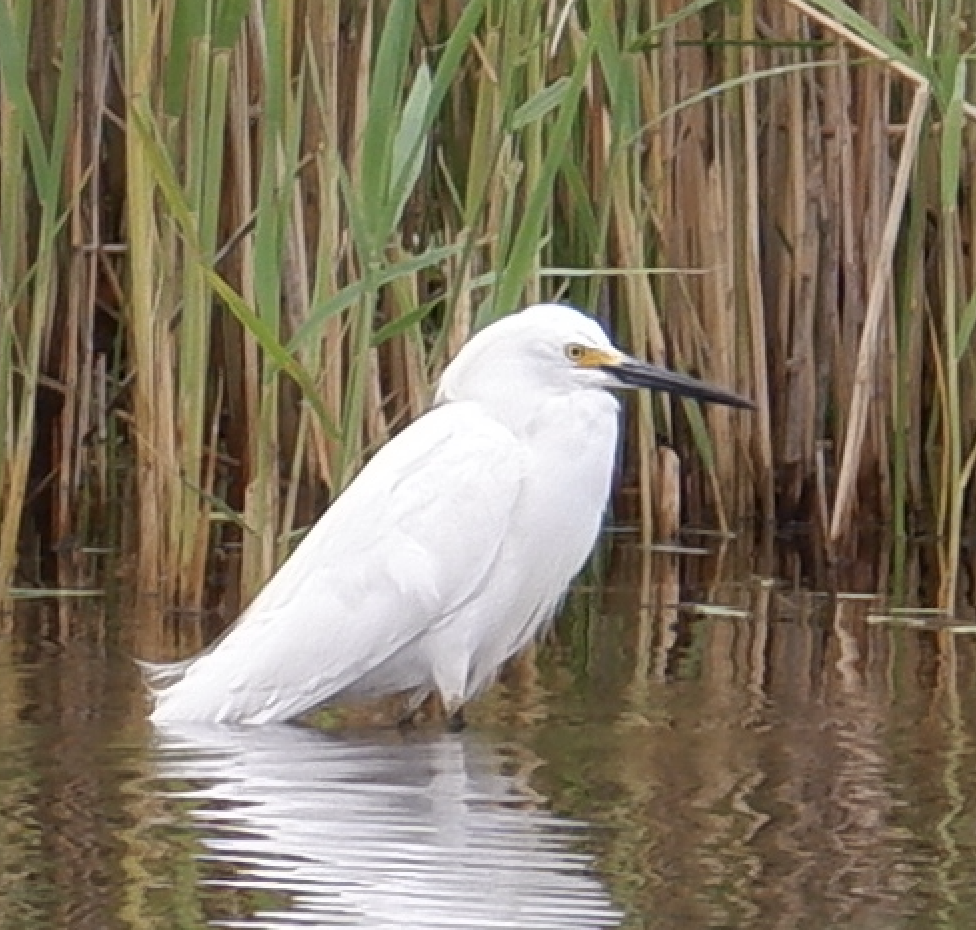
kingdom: Animalia
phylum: Chordata
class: Aves
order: Pelecaniformes
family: Ardeidae
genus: Egretta
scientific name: Egretta thula
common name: Snowy egret
